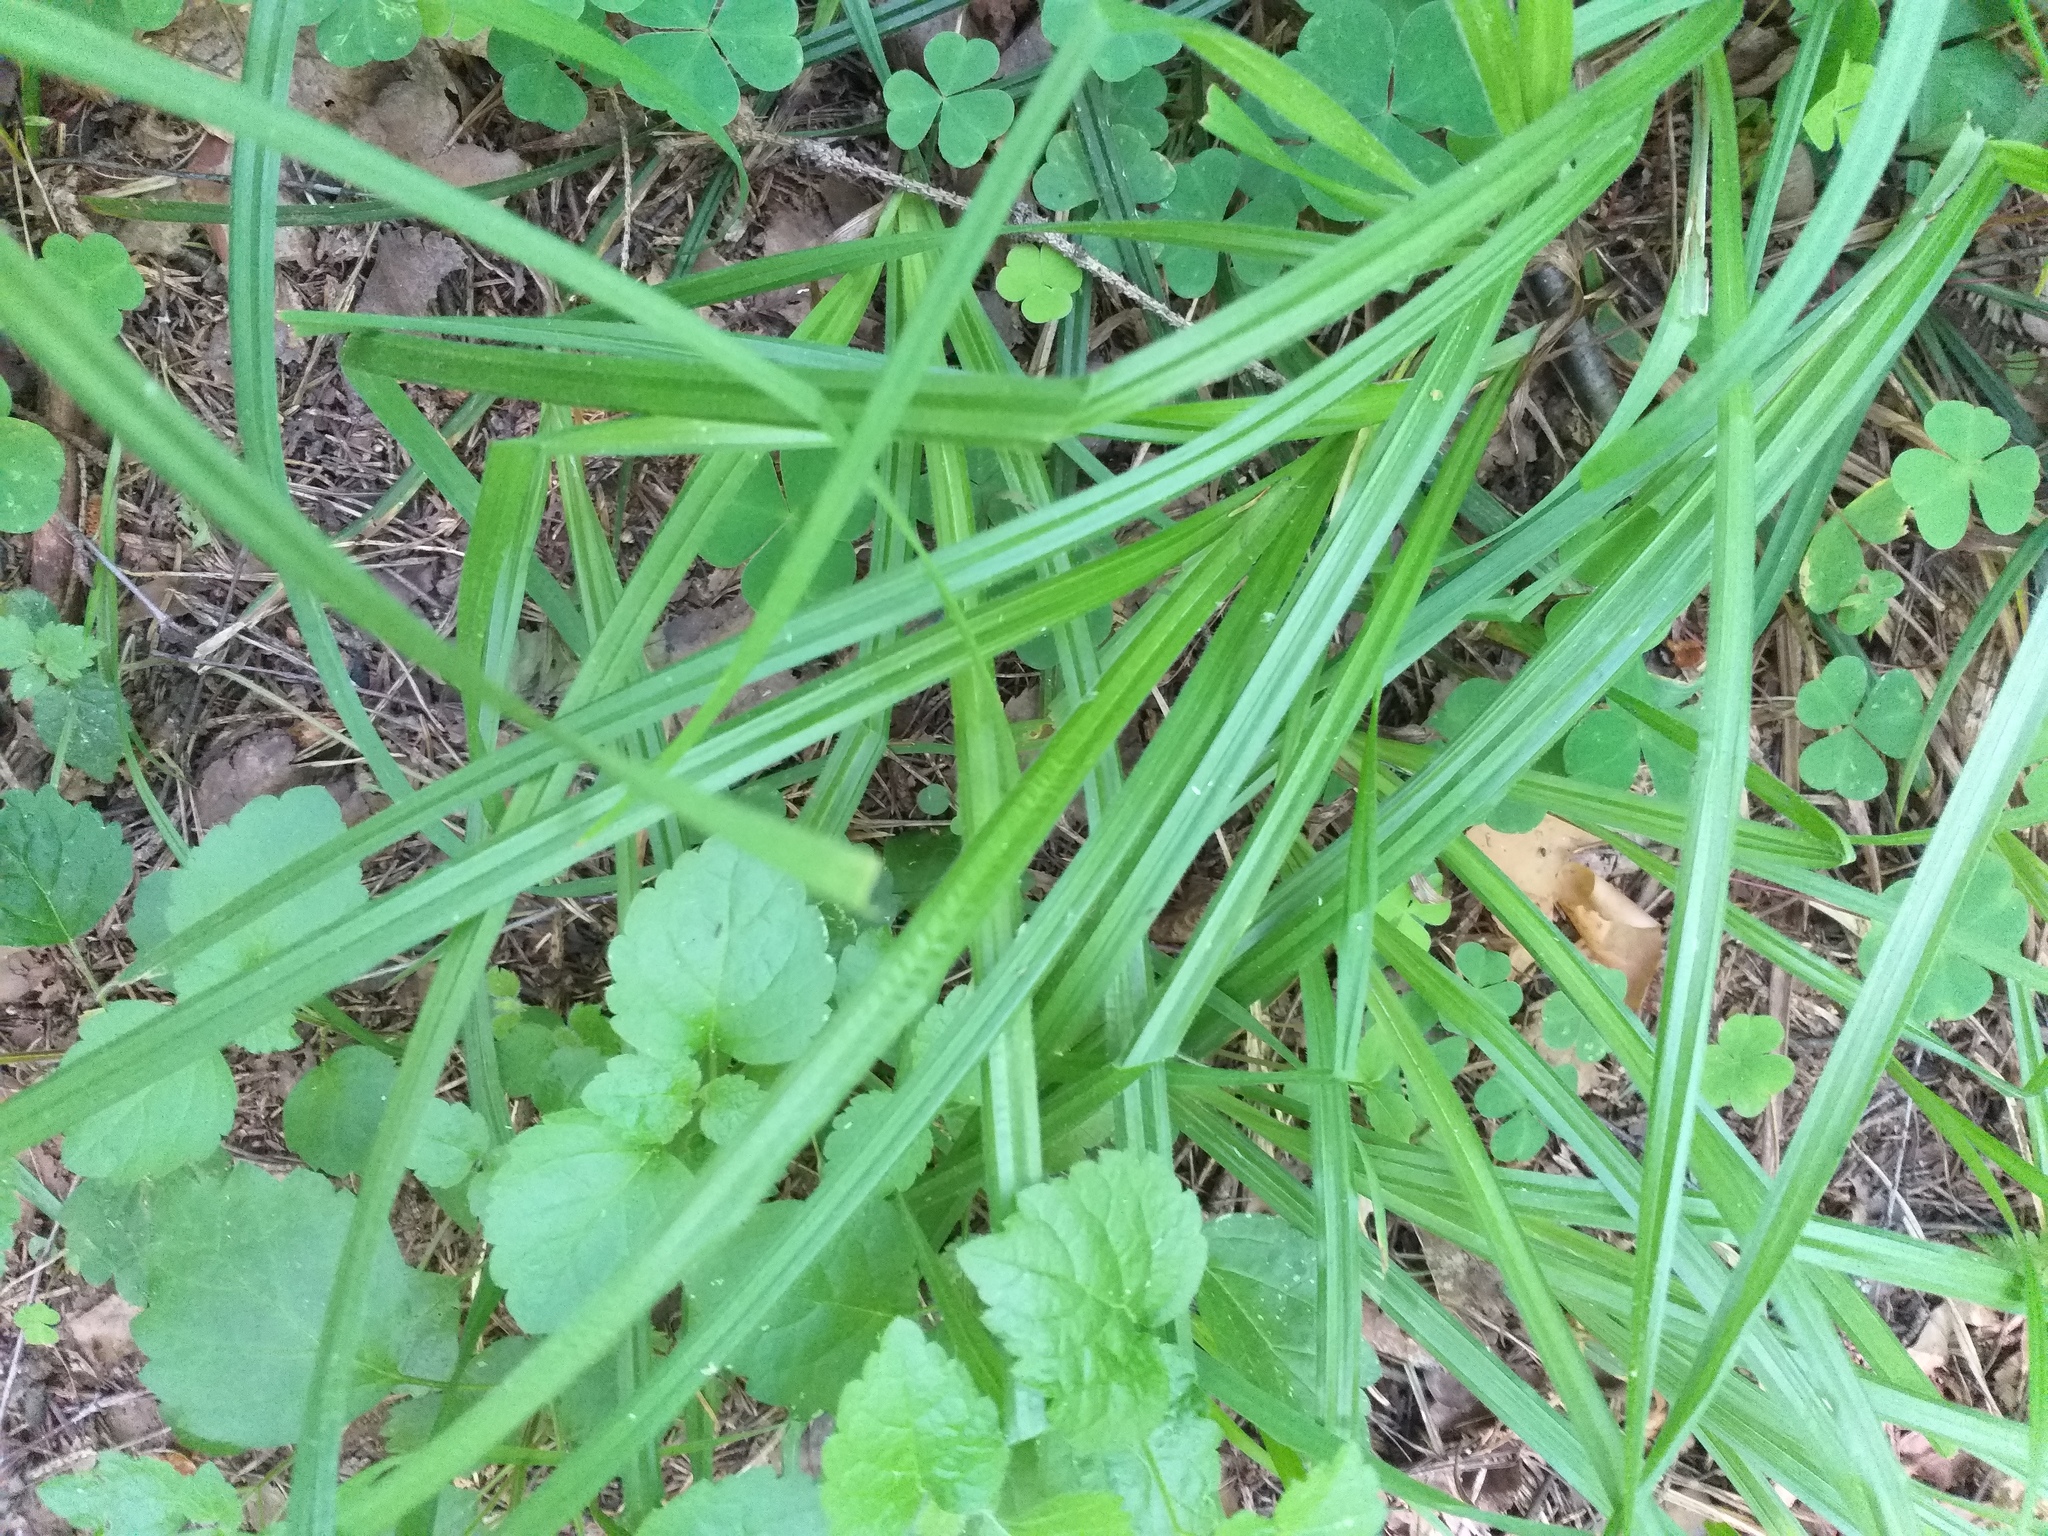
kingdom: Plantae
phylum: Tracheophyta
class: Liliopsida
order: Poales
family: Cyperaceae
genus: Carex
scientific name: Carex pilosa
